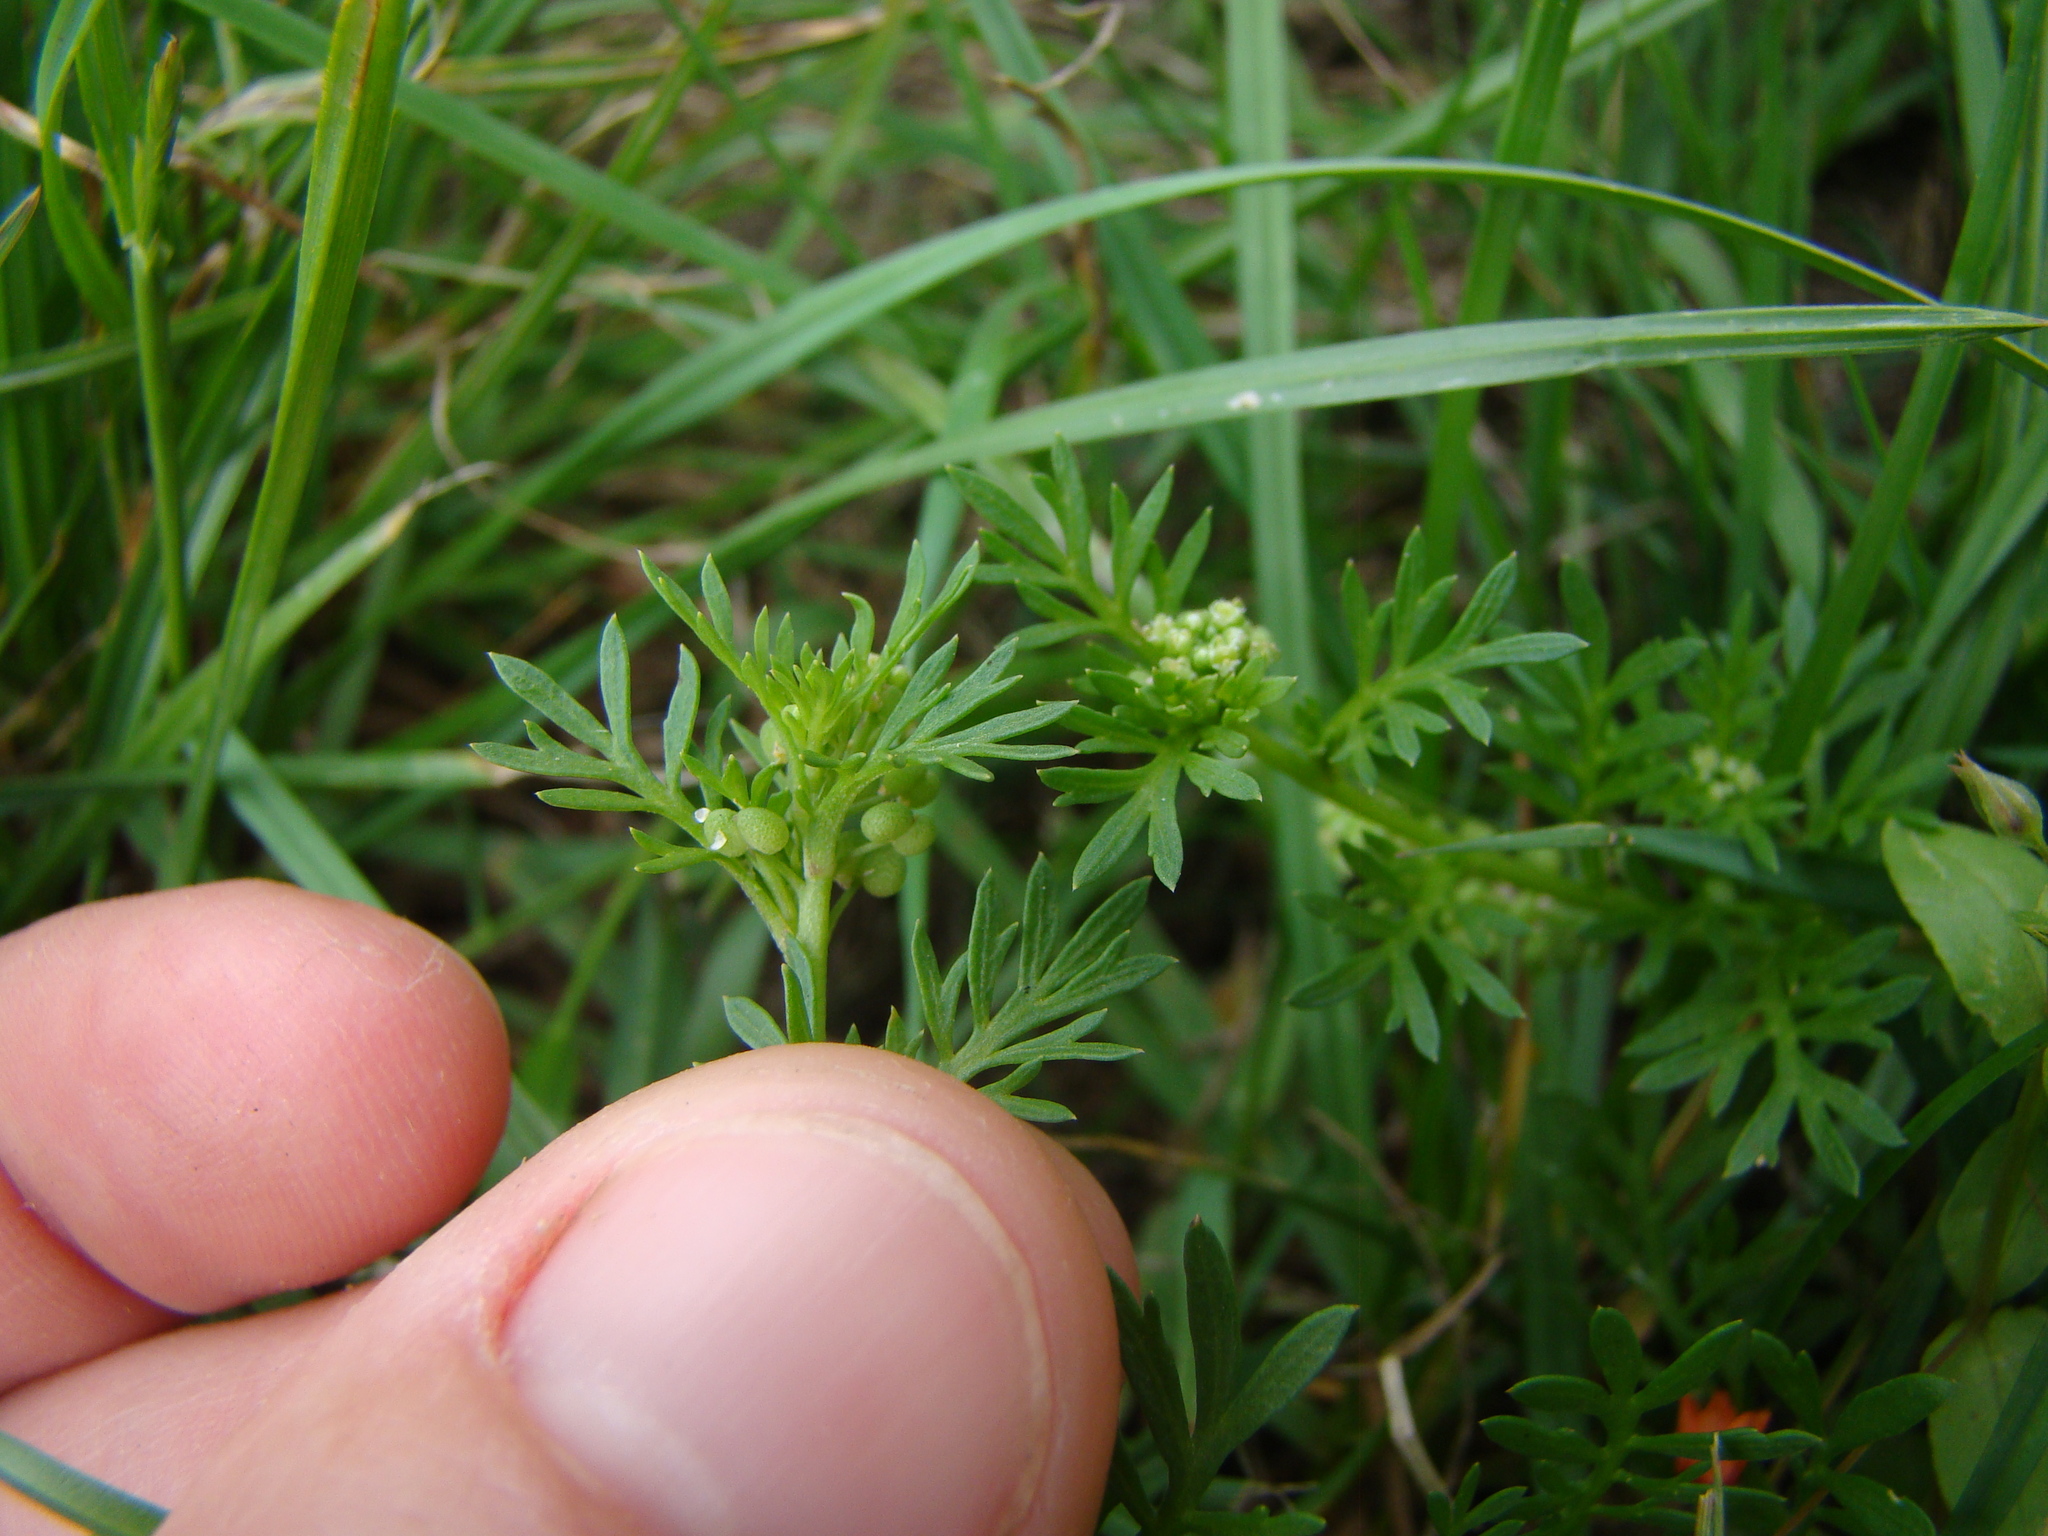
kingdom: Plantae
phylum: Tracheophyta
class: Magnoliopsida
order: Brassicales
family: Brassicaceae
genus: Lepidium
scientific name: Lepidium didymum
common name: Lesser swinecress
